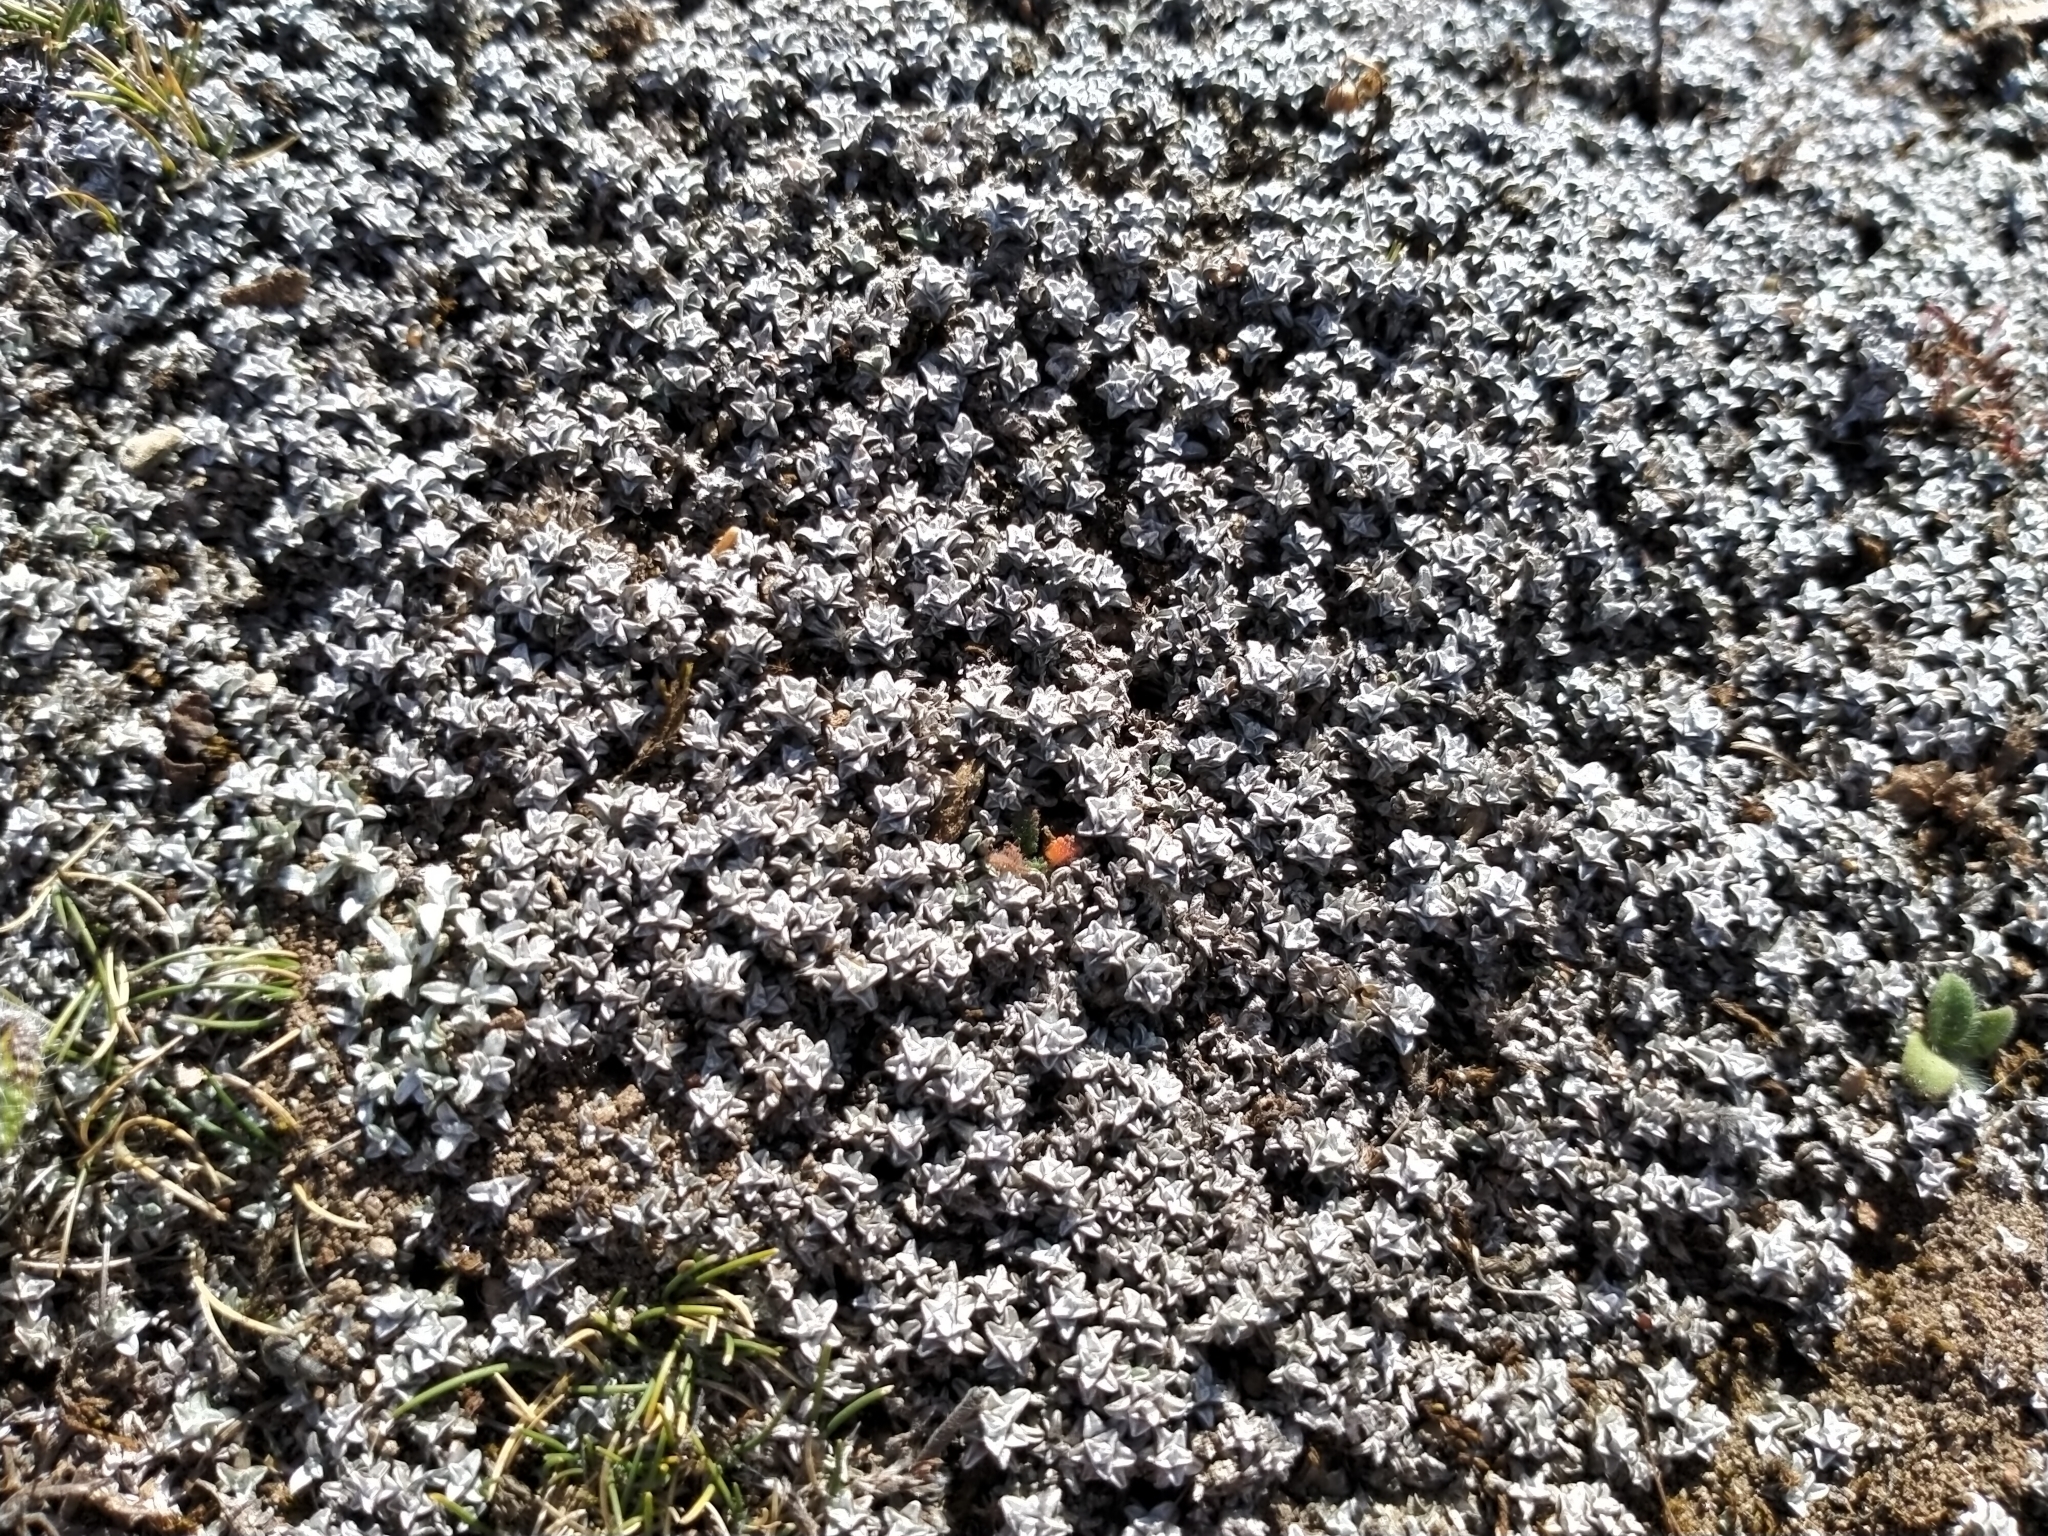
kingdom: Plantae
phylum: Tracheophyta
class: Magnoliopsida
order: Asterales
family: Asteraceae
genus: Raoulia
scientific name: Raoulia beauverdii
